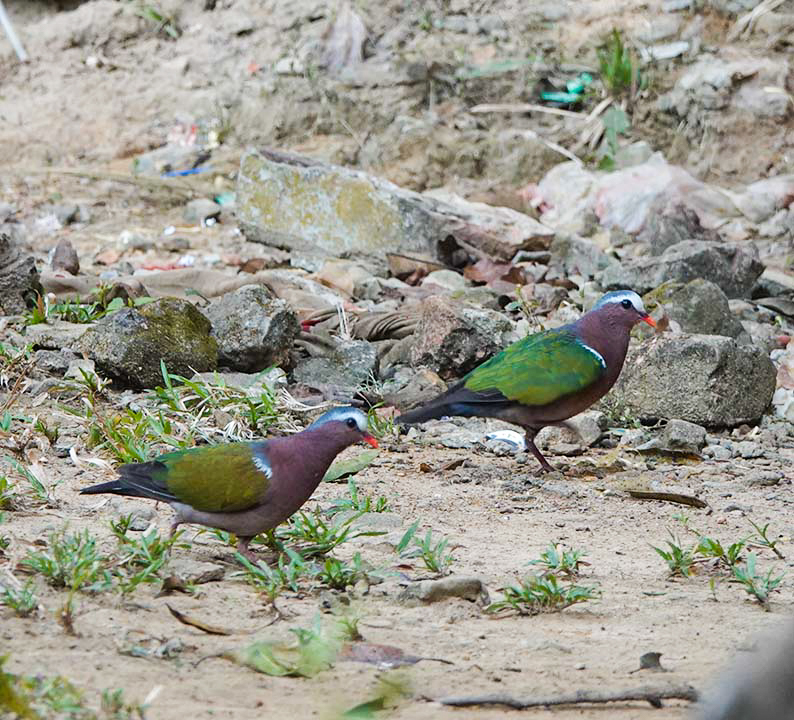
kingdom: Animalia
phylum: Chordata
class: Aves
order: Columbiformes
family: Columbidae
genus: Chalcophaps
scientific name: Chalcophaps indica
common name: Common emerald dove
